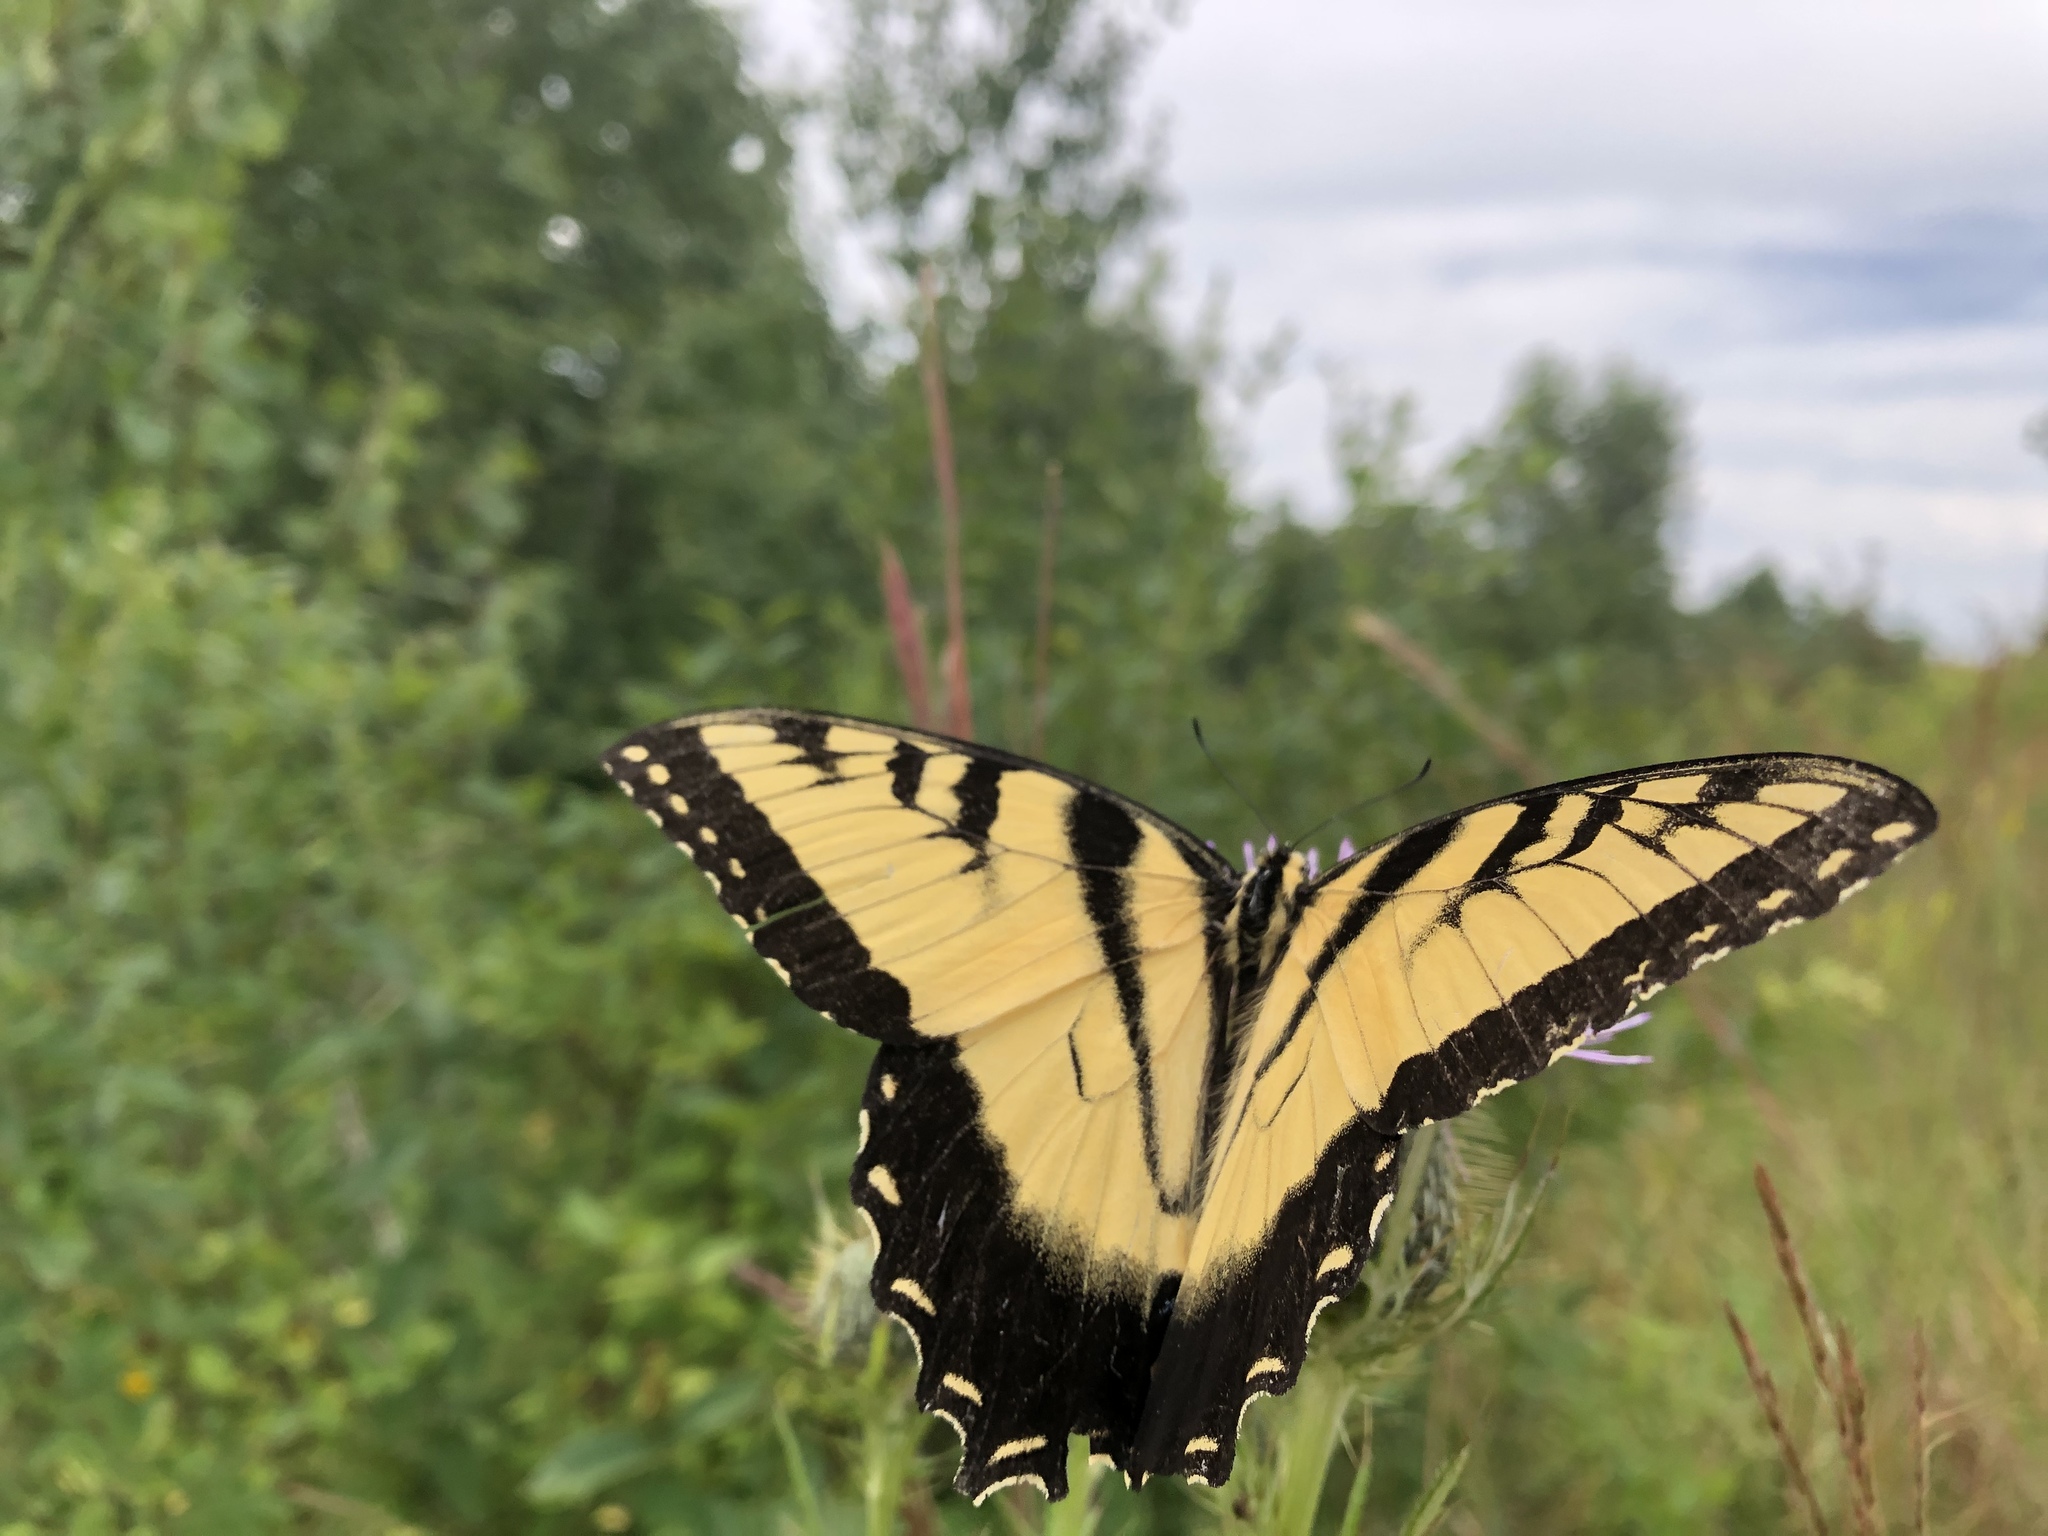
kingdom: Animalia
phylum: Arthropoda
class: Insecta
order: Lepidoptera
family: Papilionidae
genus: Papilio
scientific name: Papilio glaucus
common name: Tiger swallowtail
